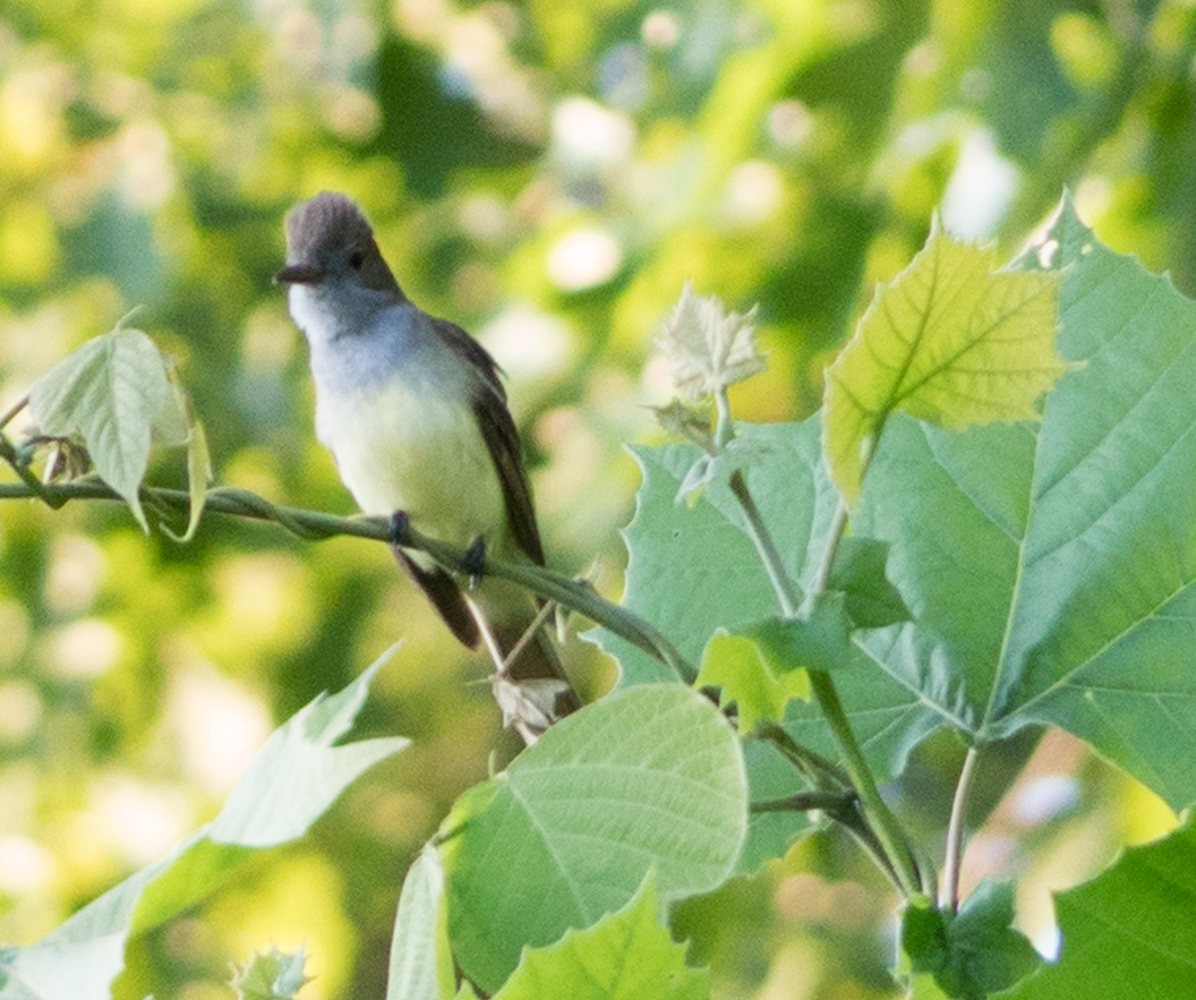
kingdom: Animalia
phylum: Chordata
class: Aves
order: Passeriformes
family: Tyrannidae
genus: Myiarchus
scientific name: Myiarchus crinitus
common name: Great crested flycatcher
